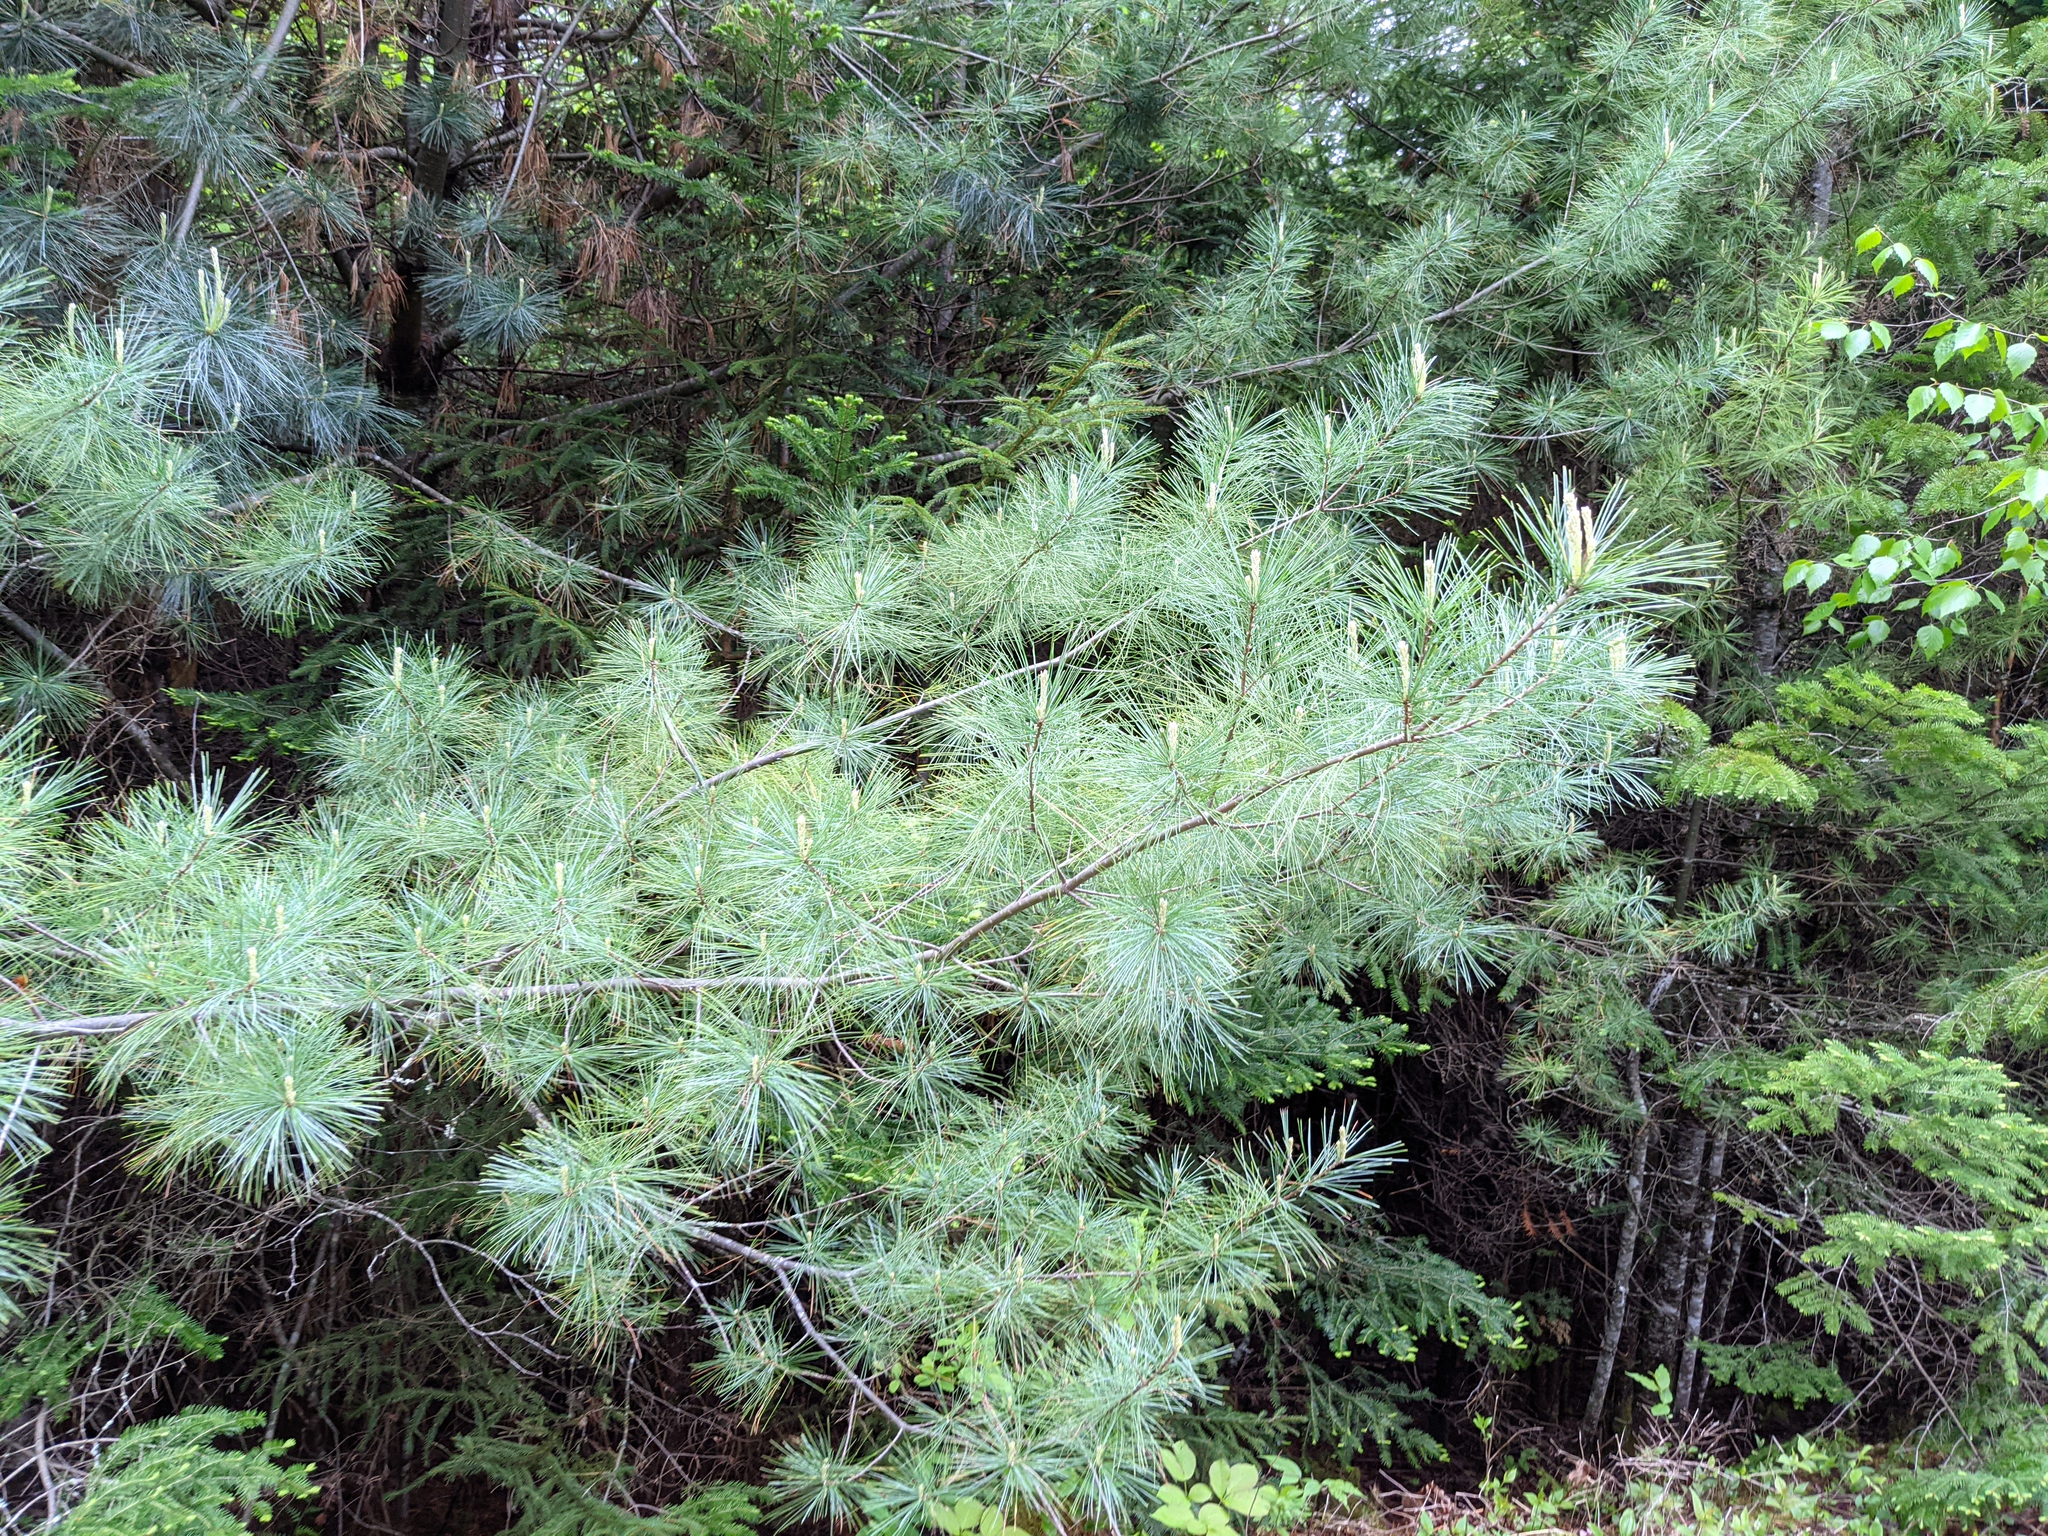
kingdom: Plantae
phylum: Tracheophyta
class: Pinopsida
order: Pinales
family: Pinaceae
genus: Pinus
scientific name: Pinus strobus
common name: Weymouth pine
